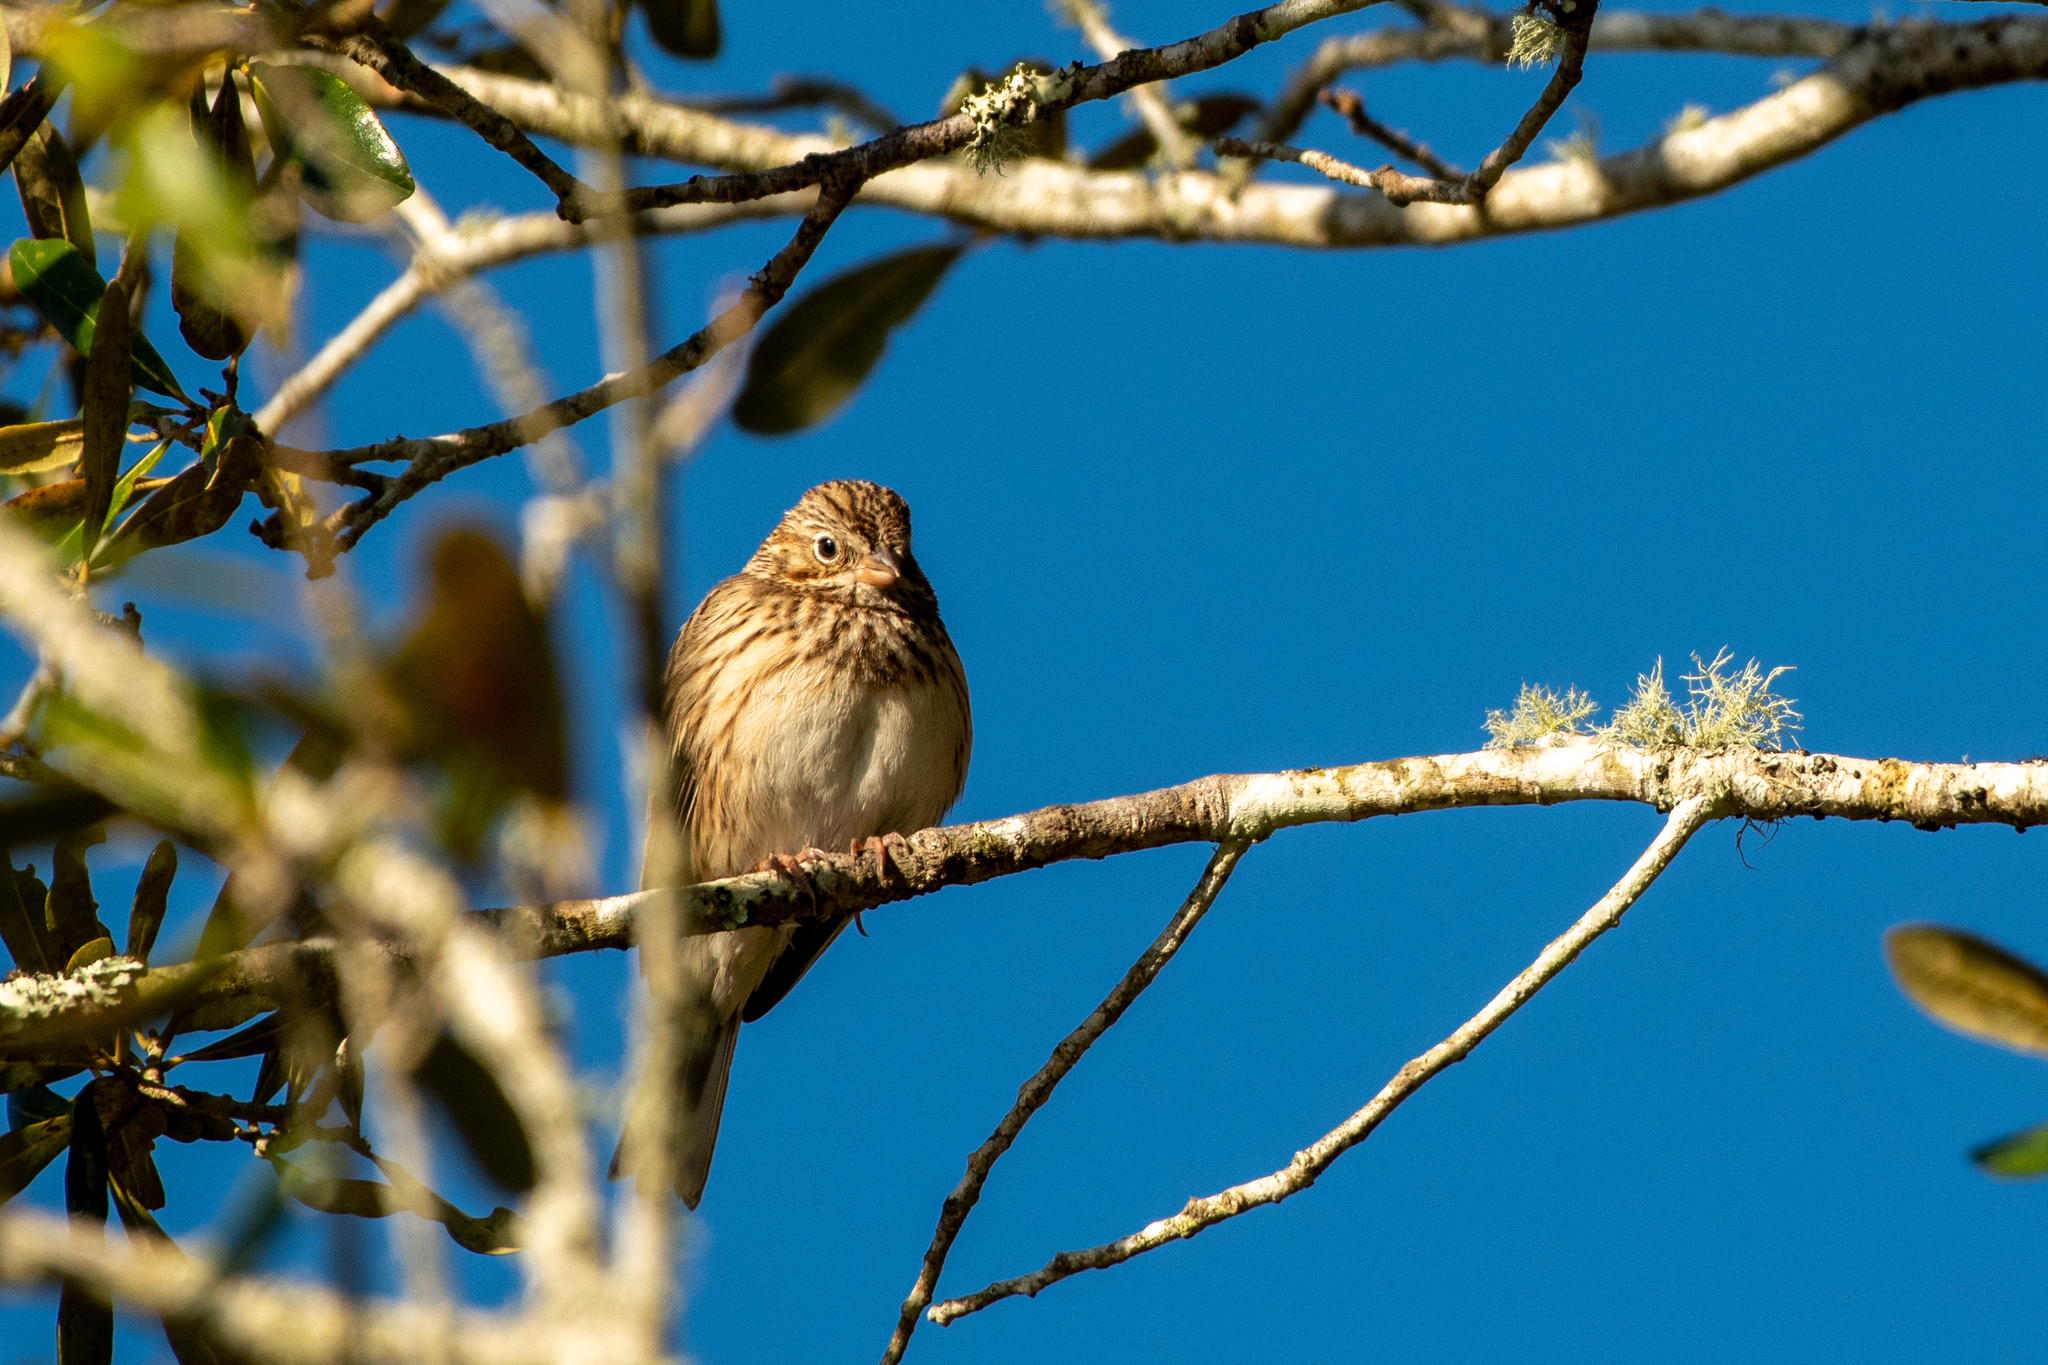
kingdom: Animalia
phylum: Chordata
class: Aves
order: Passeriformes
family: Passerellidae
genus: Pooecetes
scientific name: Pooecetes gramineus
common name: Vesper sparrow
